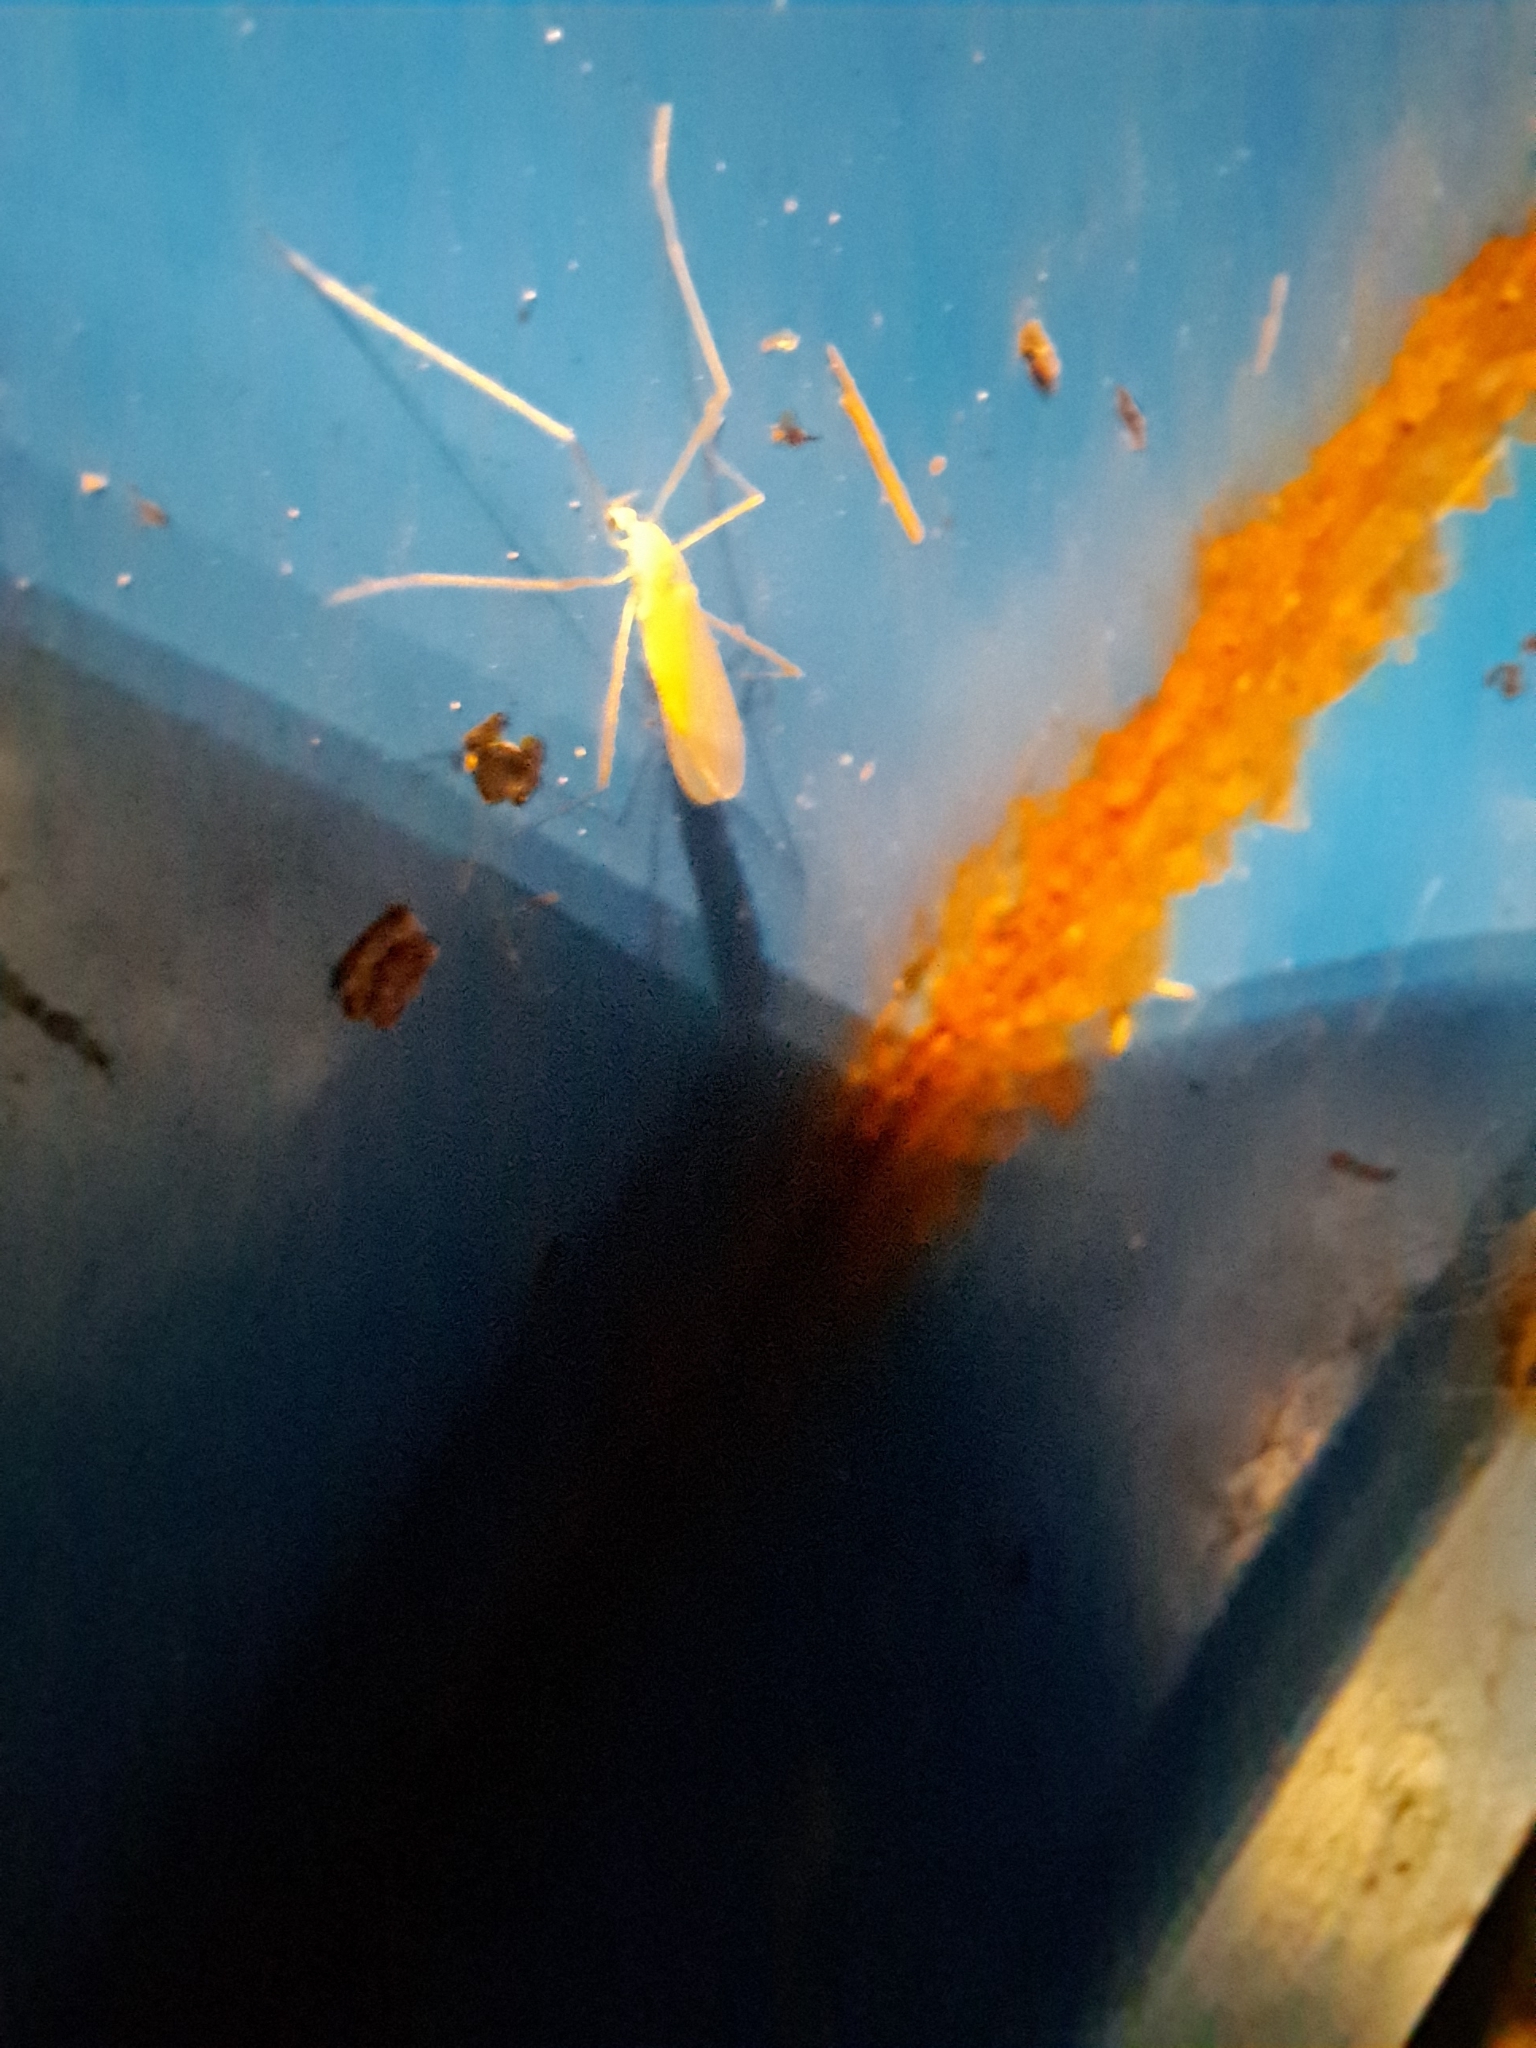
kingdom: Animalia
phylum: Arthropoda
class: Insecta
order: Diptera
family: Limoniidae
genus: Erioptera
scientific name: Erioptera
